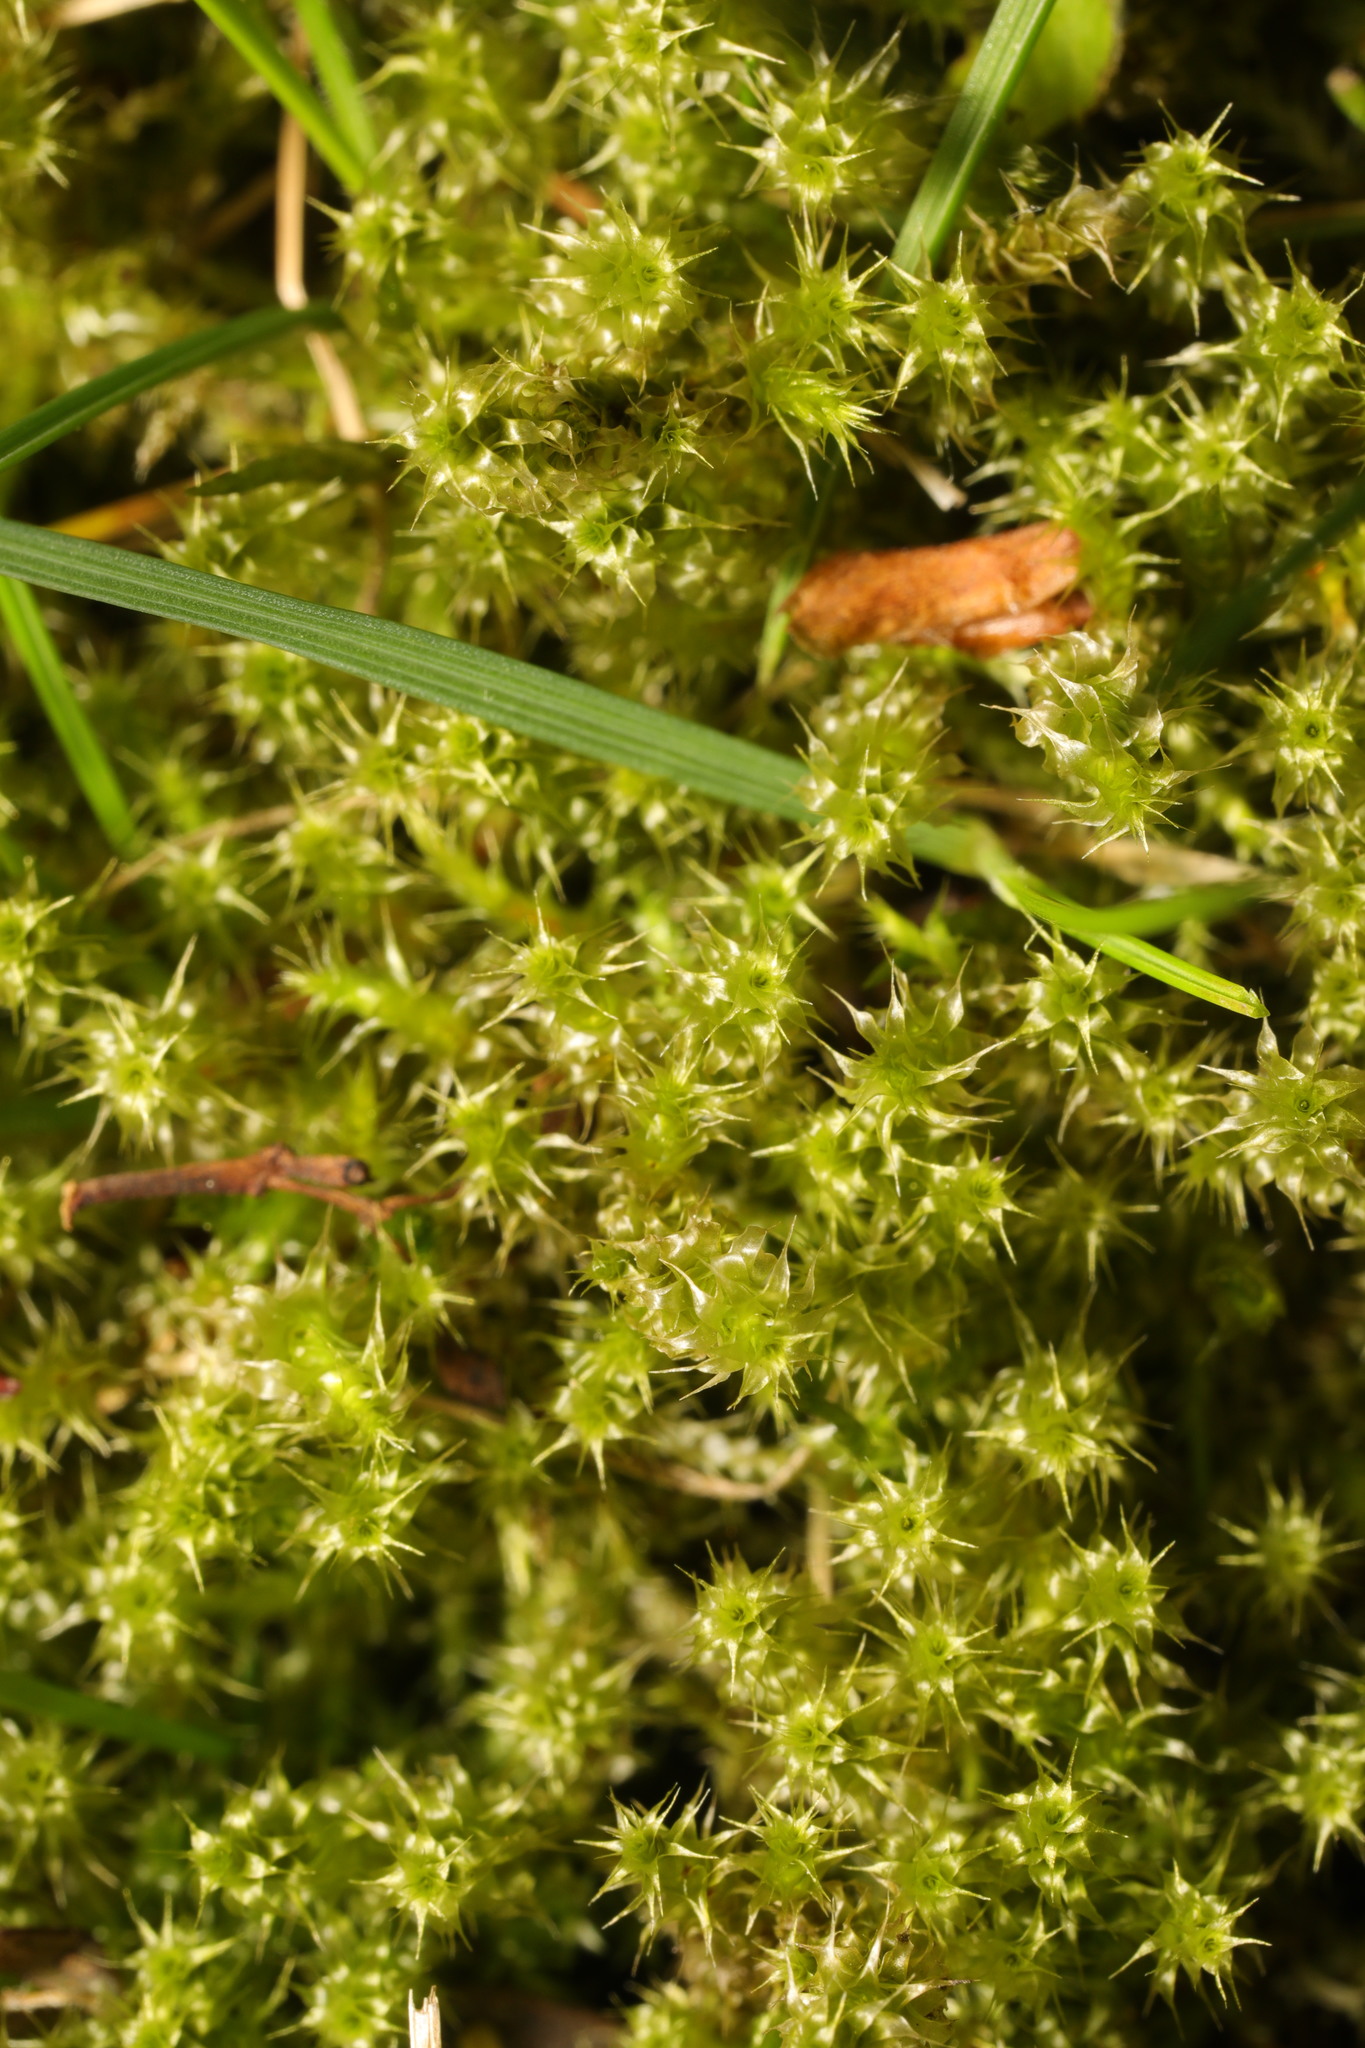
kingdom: Plantae
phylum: Bryophyta
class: Bryopsida
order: Hypnales
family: Hylocomiaceae
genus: Rhytidiadelphus
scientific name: Rhytidiadelphus squarrosus
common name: Springy turf-moss
